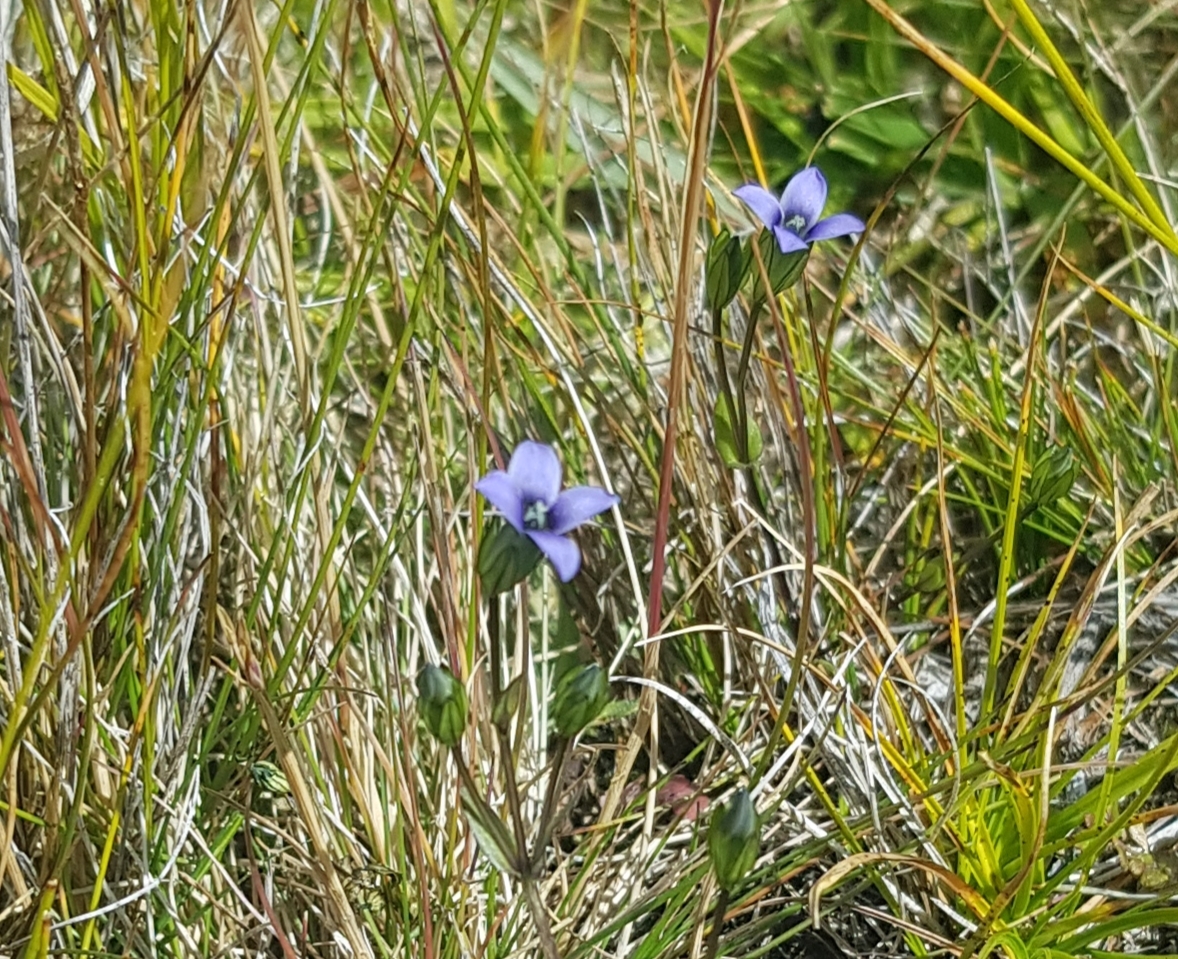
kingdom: Plantae
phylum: Tracheophyta
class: Magnoliopsida
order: Gentianales
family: Gentianaceae
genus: Comastoma
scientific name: Comastoma tenellum
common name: Dane's dwarf gentian
